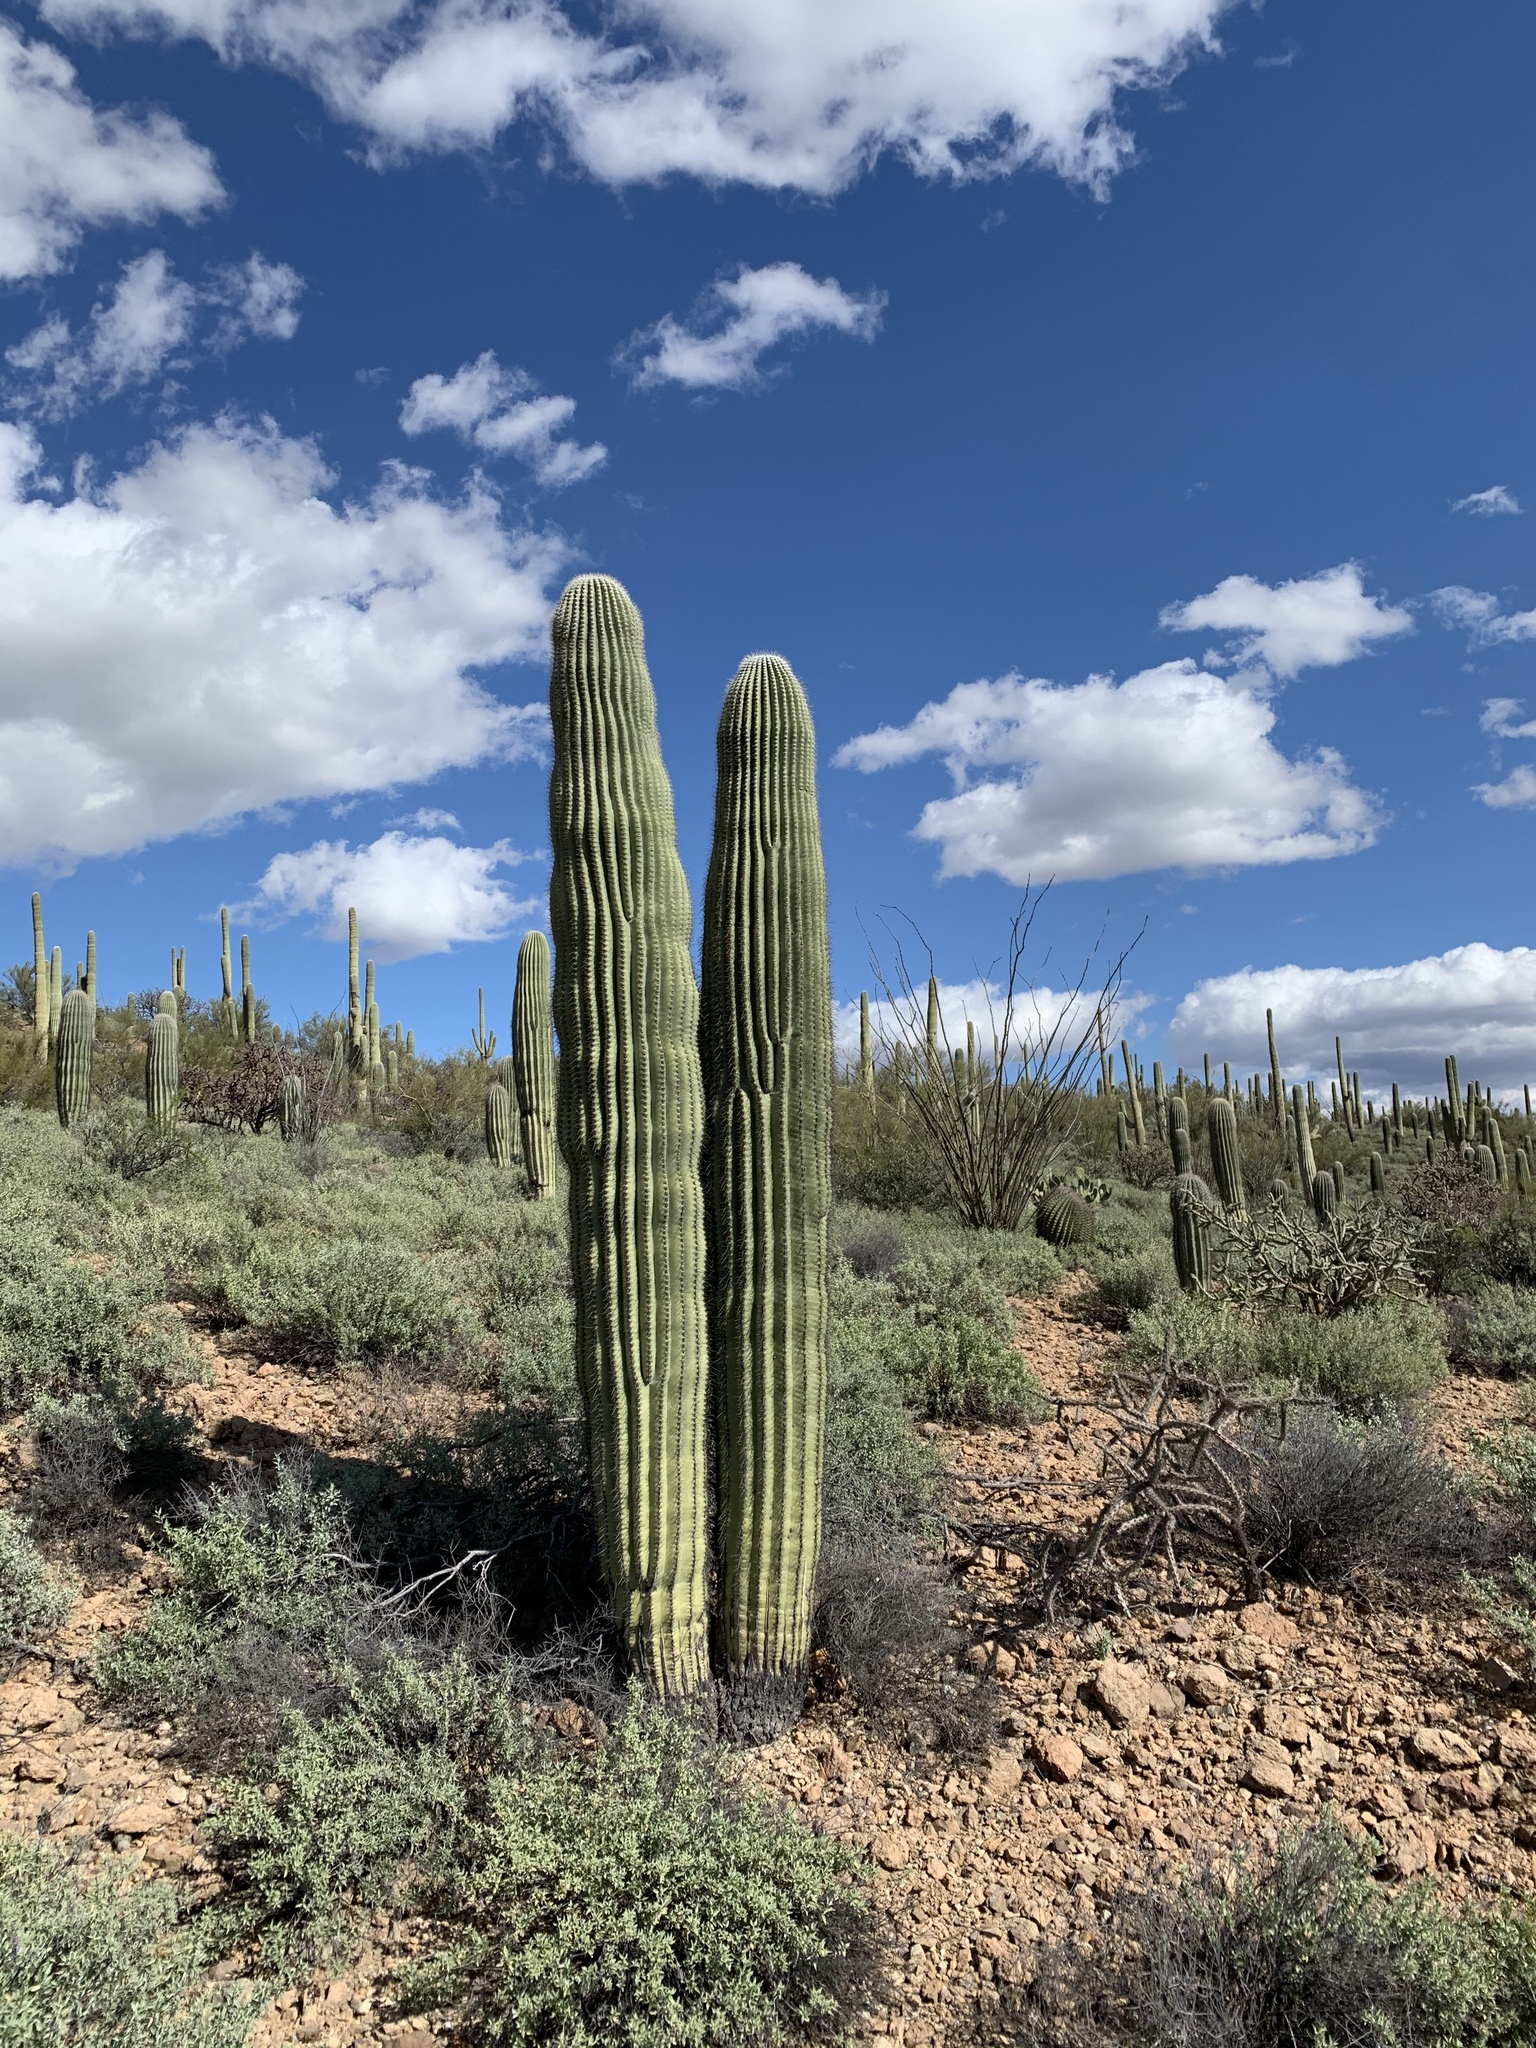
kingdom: Plantae
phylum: Tracheophyta
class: Magnoliopsida
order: Caryophyllales
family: Cactaceae
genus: Carnegiea
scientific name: Carnegiea gigantea
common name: Saguaro
